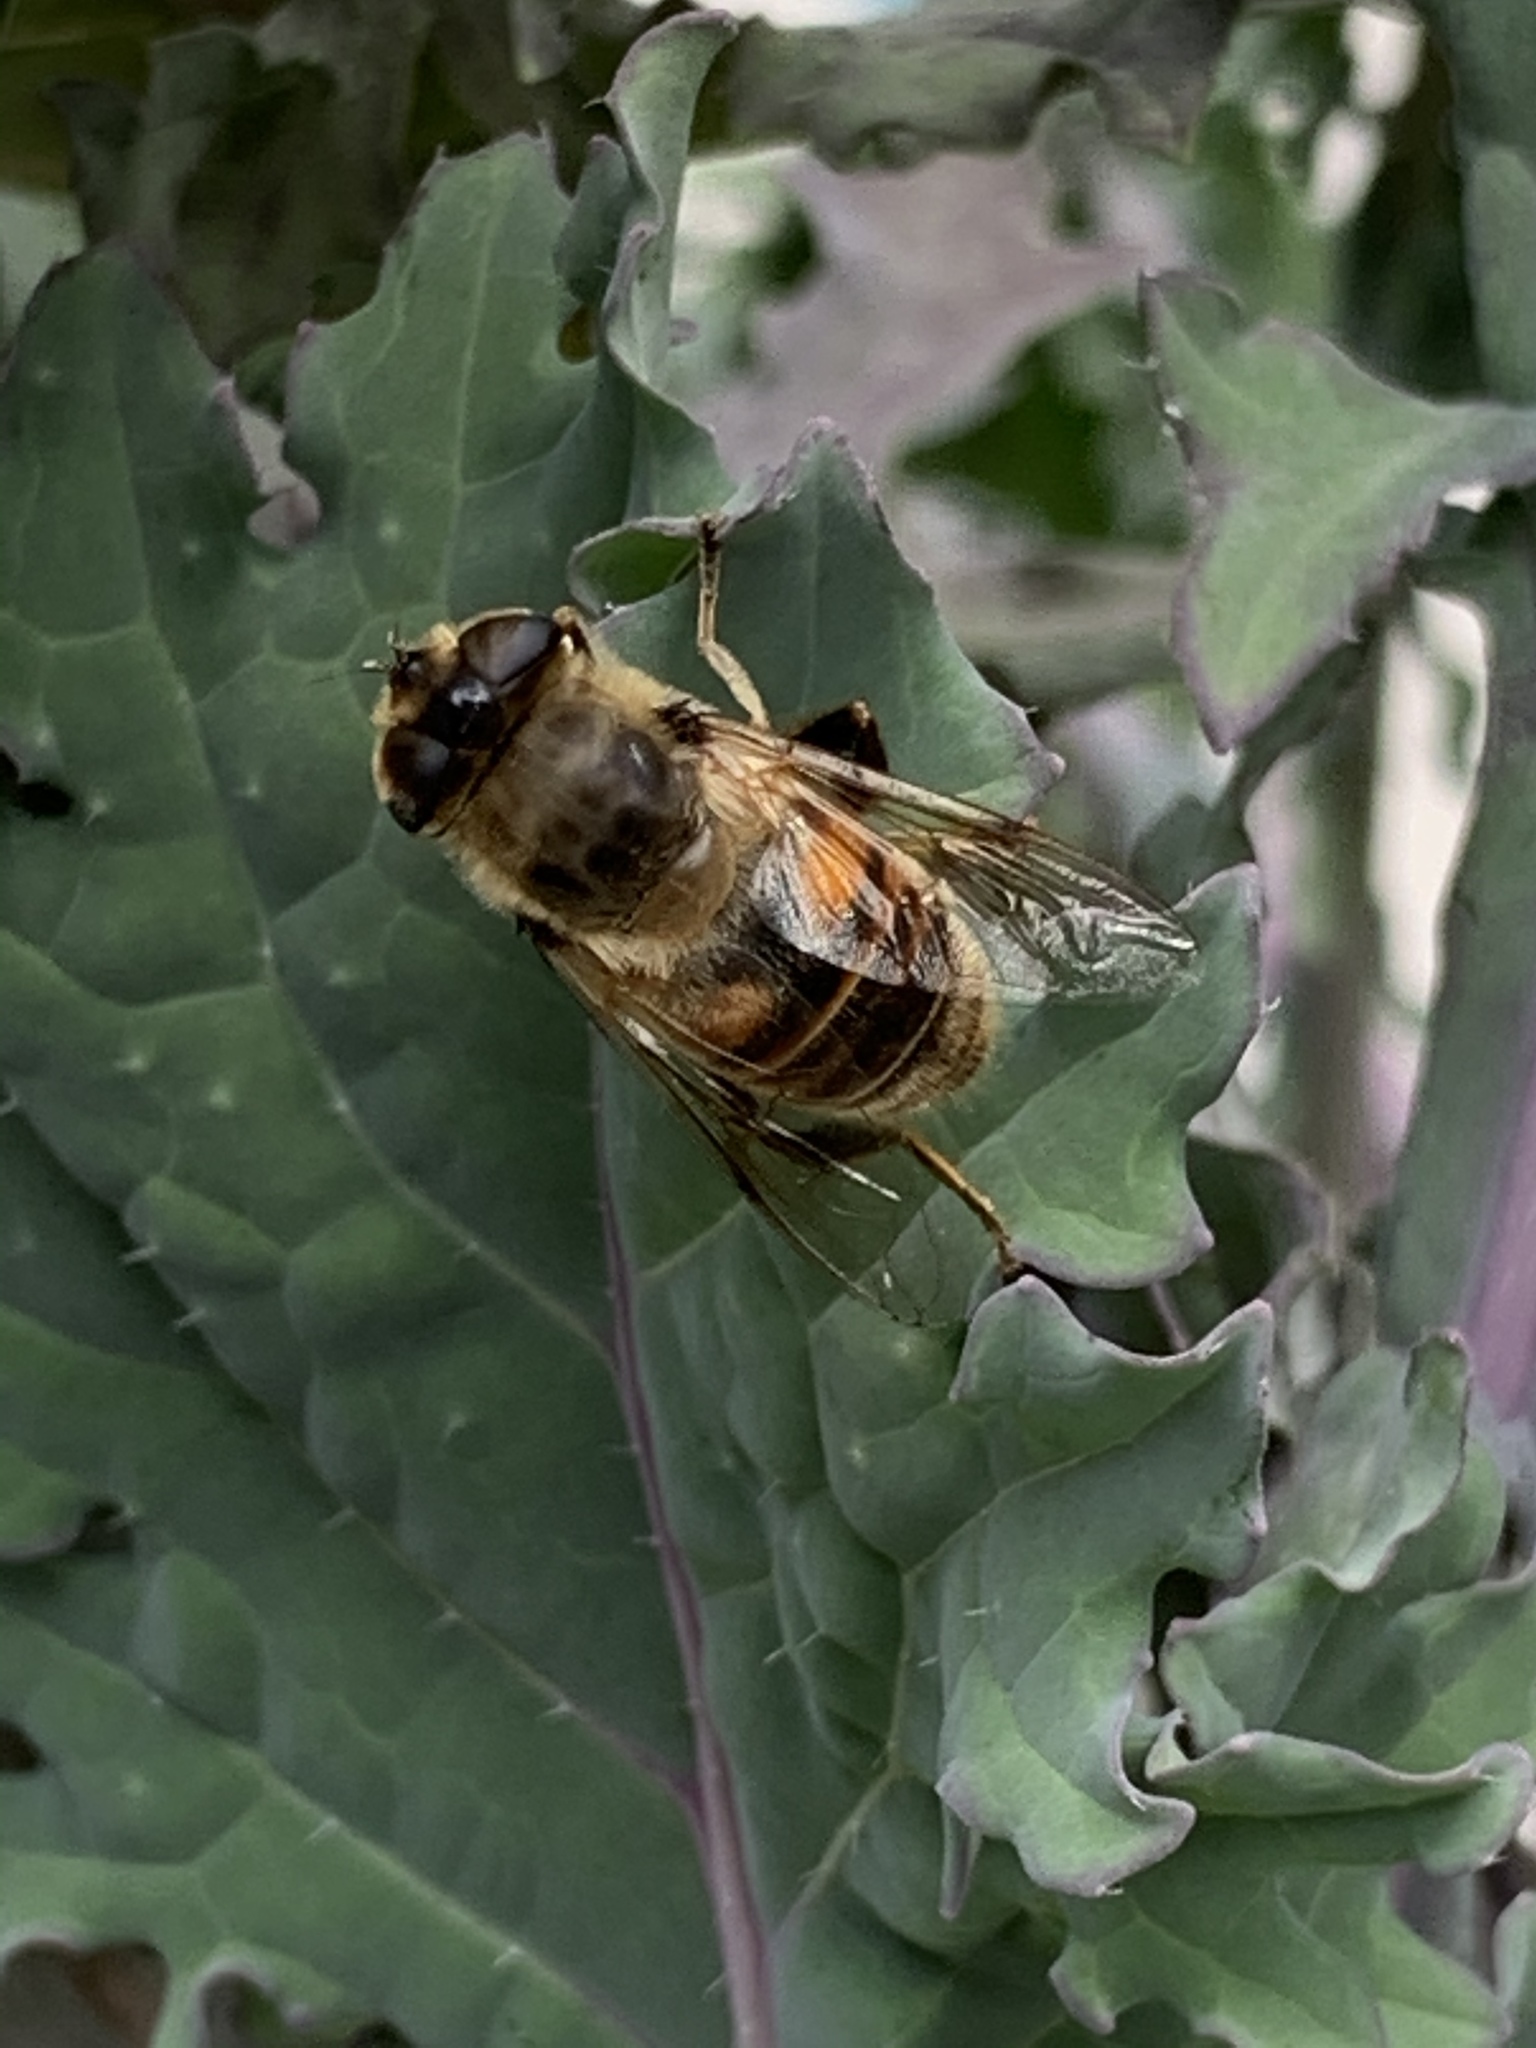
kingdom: Animalia
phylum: Arthropoda
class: Insecta
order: Diptera
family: Syrphidae
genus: Eristalis
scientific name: Eristalis tenax
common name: Drone fly
